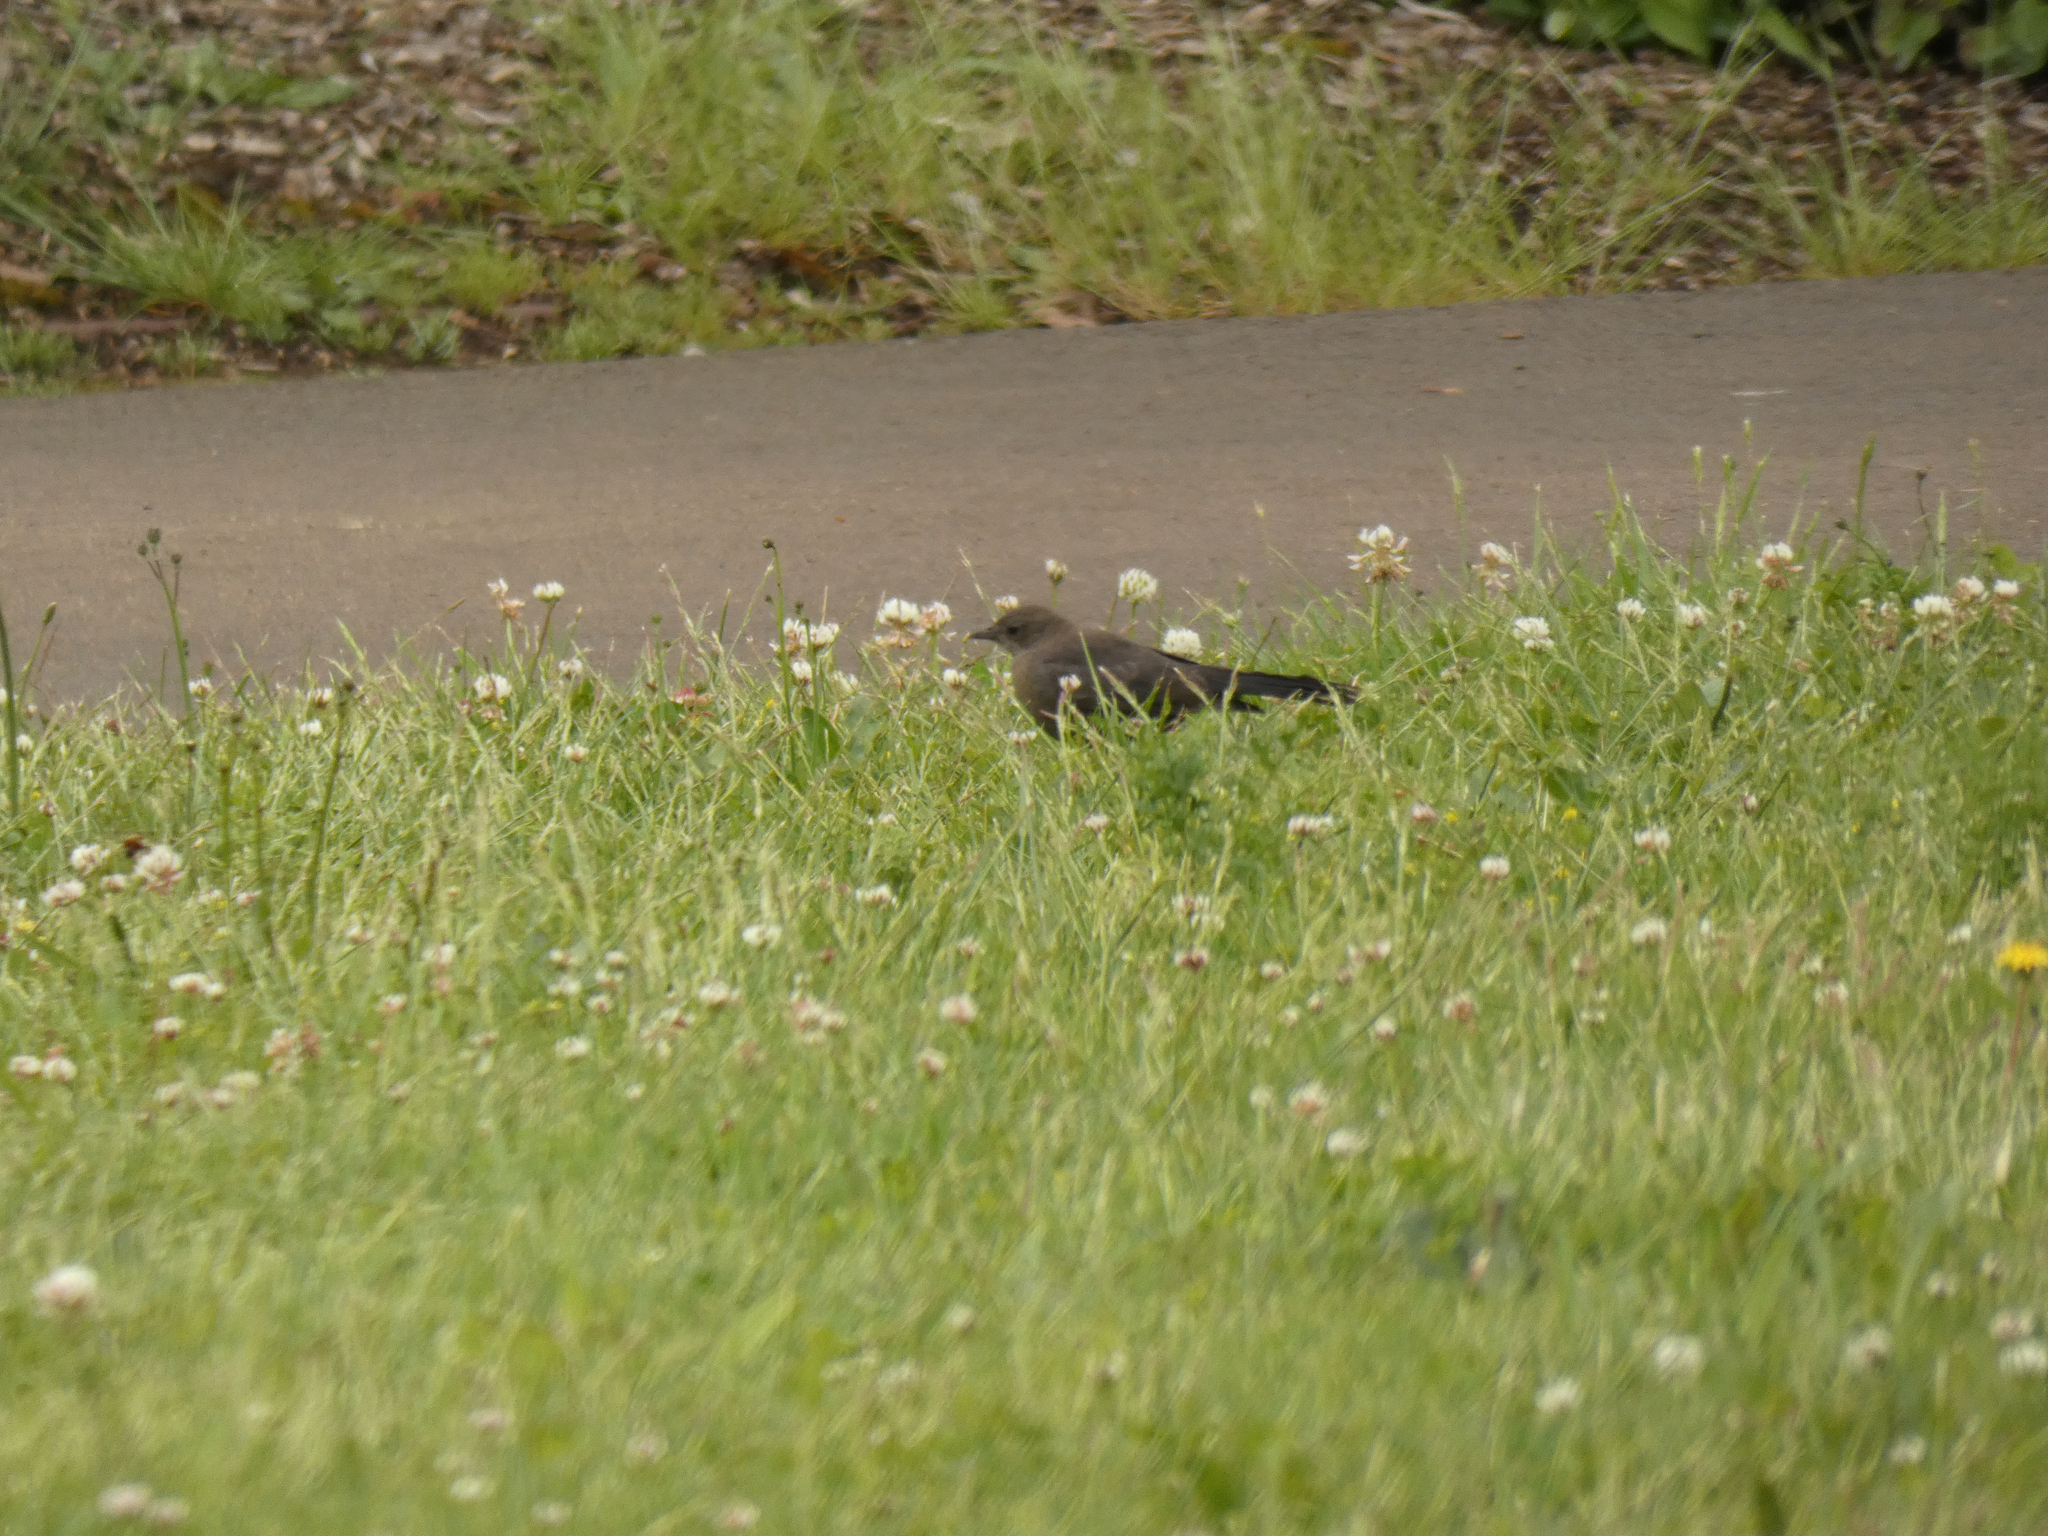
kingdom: Animalia
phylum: Chordata
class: Aves
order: Passeriformes
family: Icteridae
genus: Euphagus
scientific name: Euphagus cyanocephalus
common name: Brewer's blackbird
